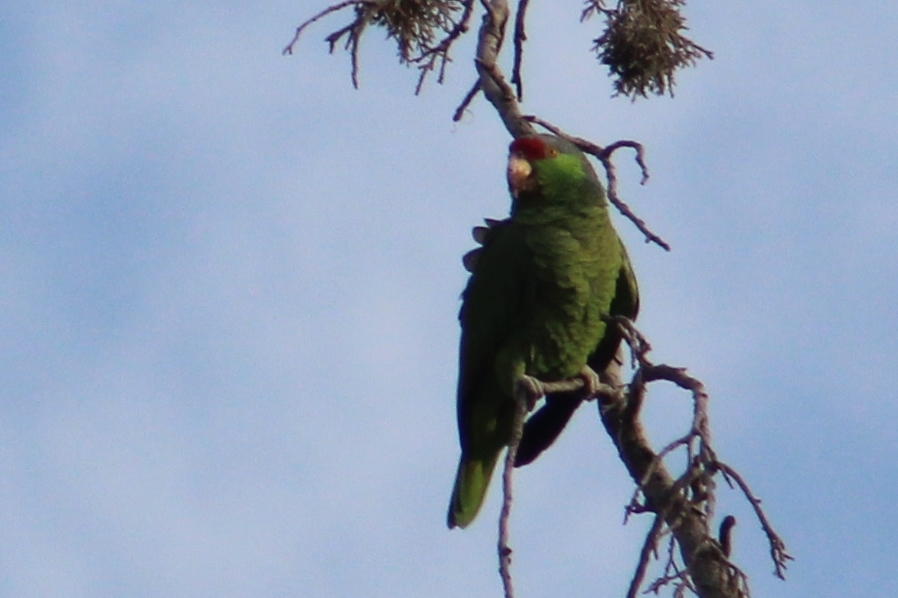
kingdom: Animalia
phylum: Chordata
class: Aves
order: Psittaciformes
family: Psittacidae
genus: Amazona
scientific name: Amazona finschi
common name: Lilac-crowned amazon
